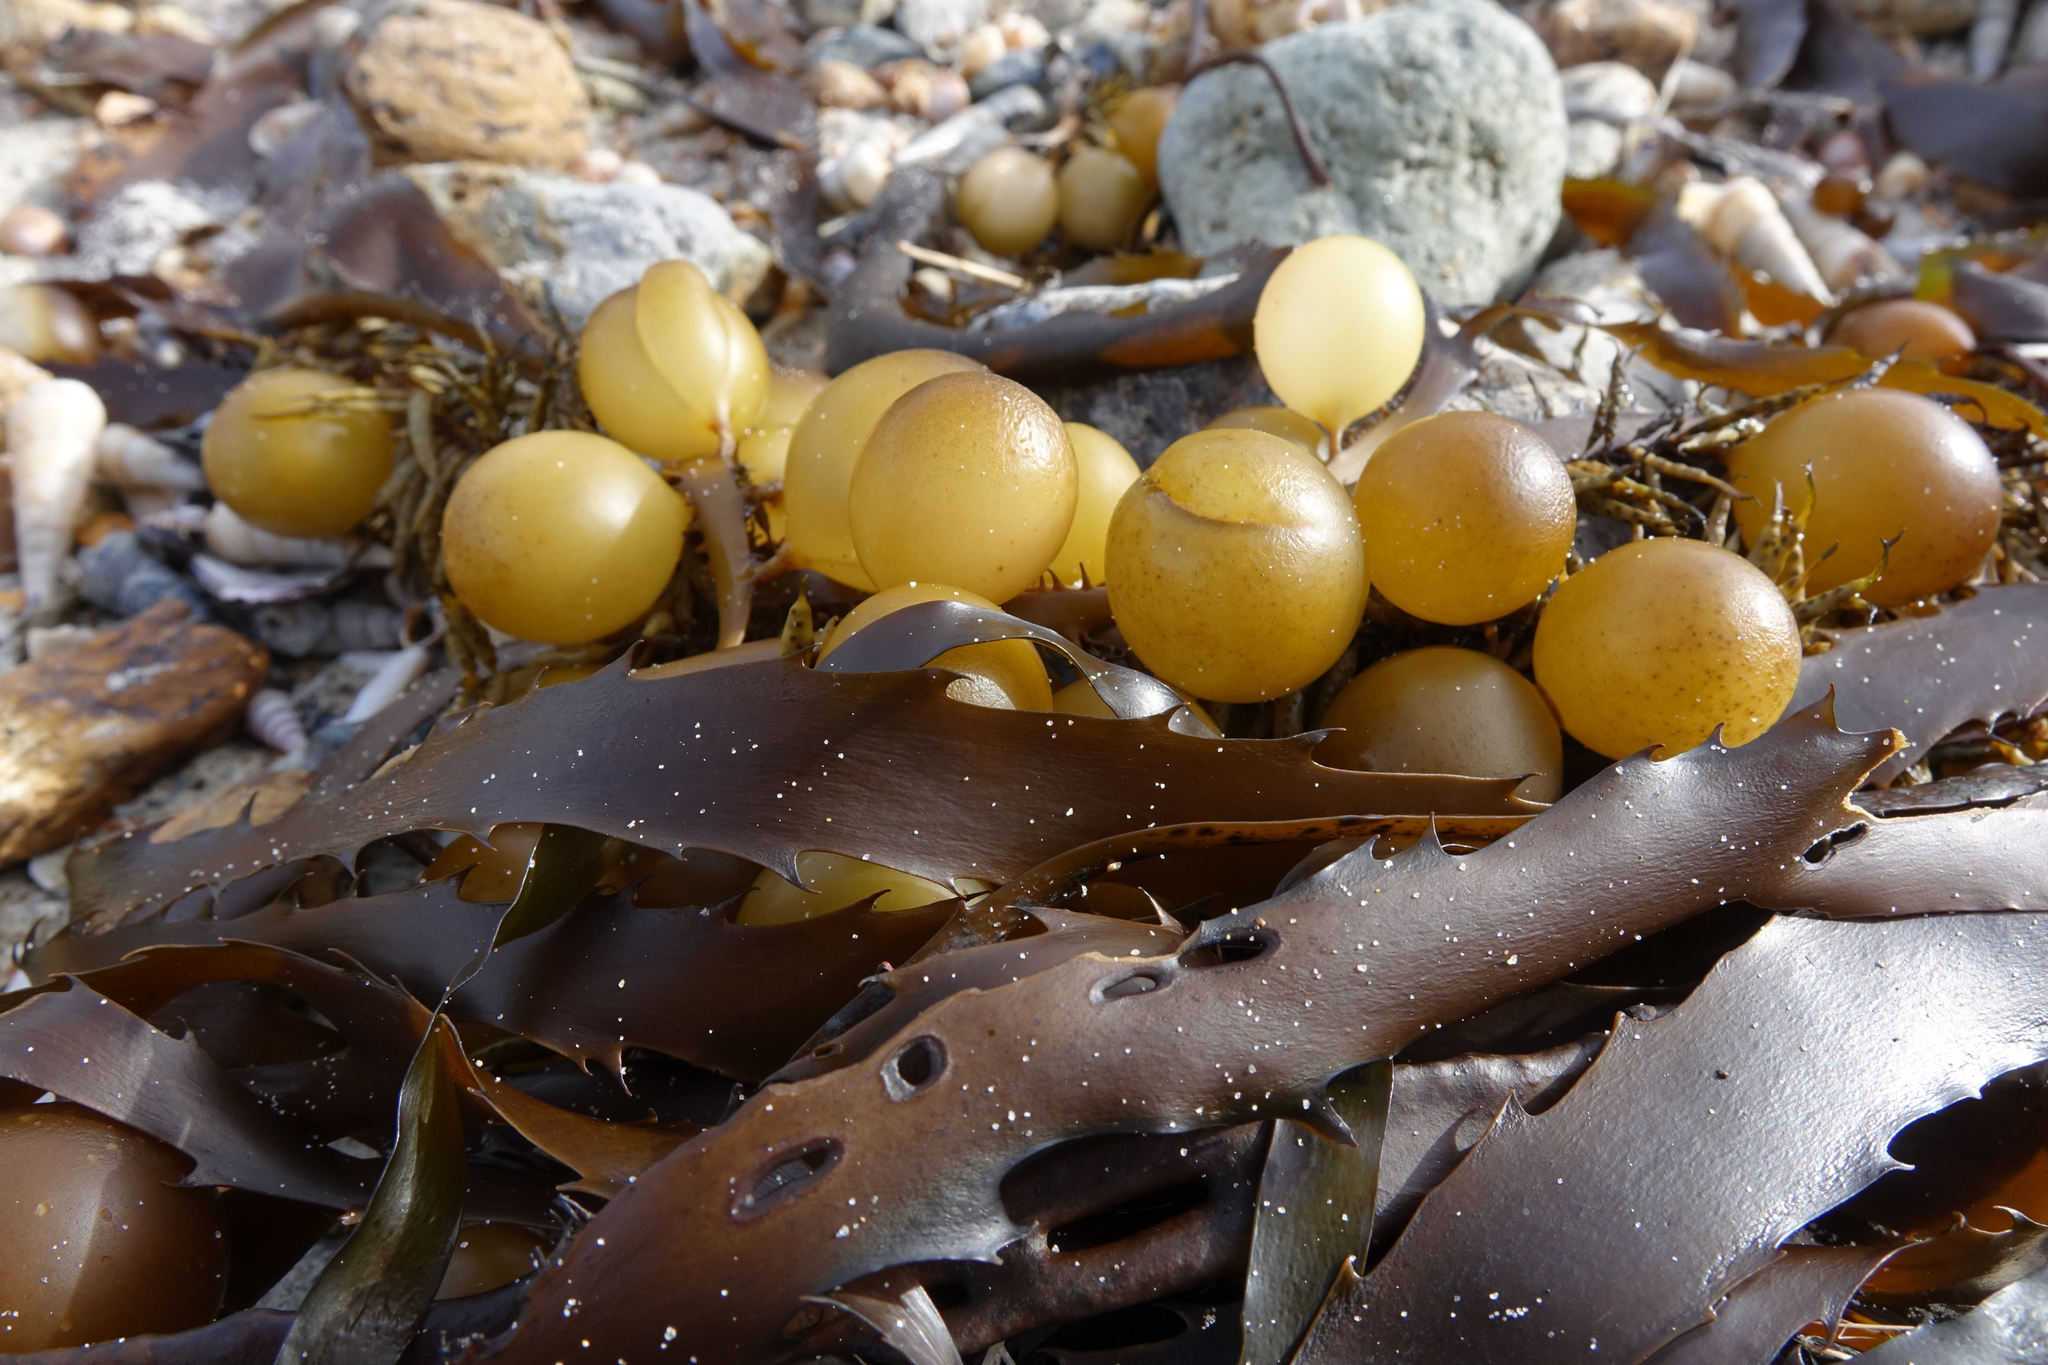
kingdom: Chromista
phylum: Ochrophyta
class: Phaeophyceae
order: Fucales
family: Seirococcaceae
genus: Marginariella
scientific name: Marginariella urvilliana
